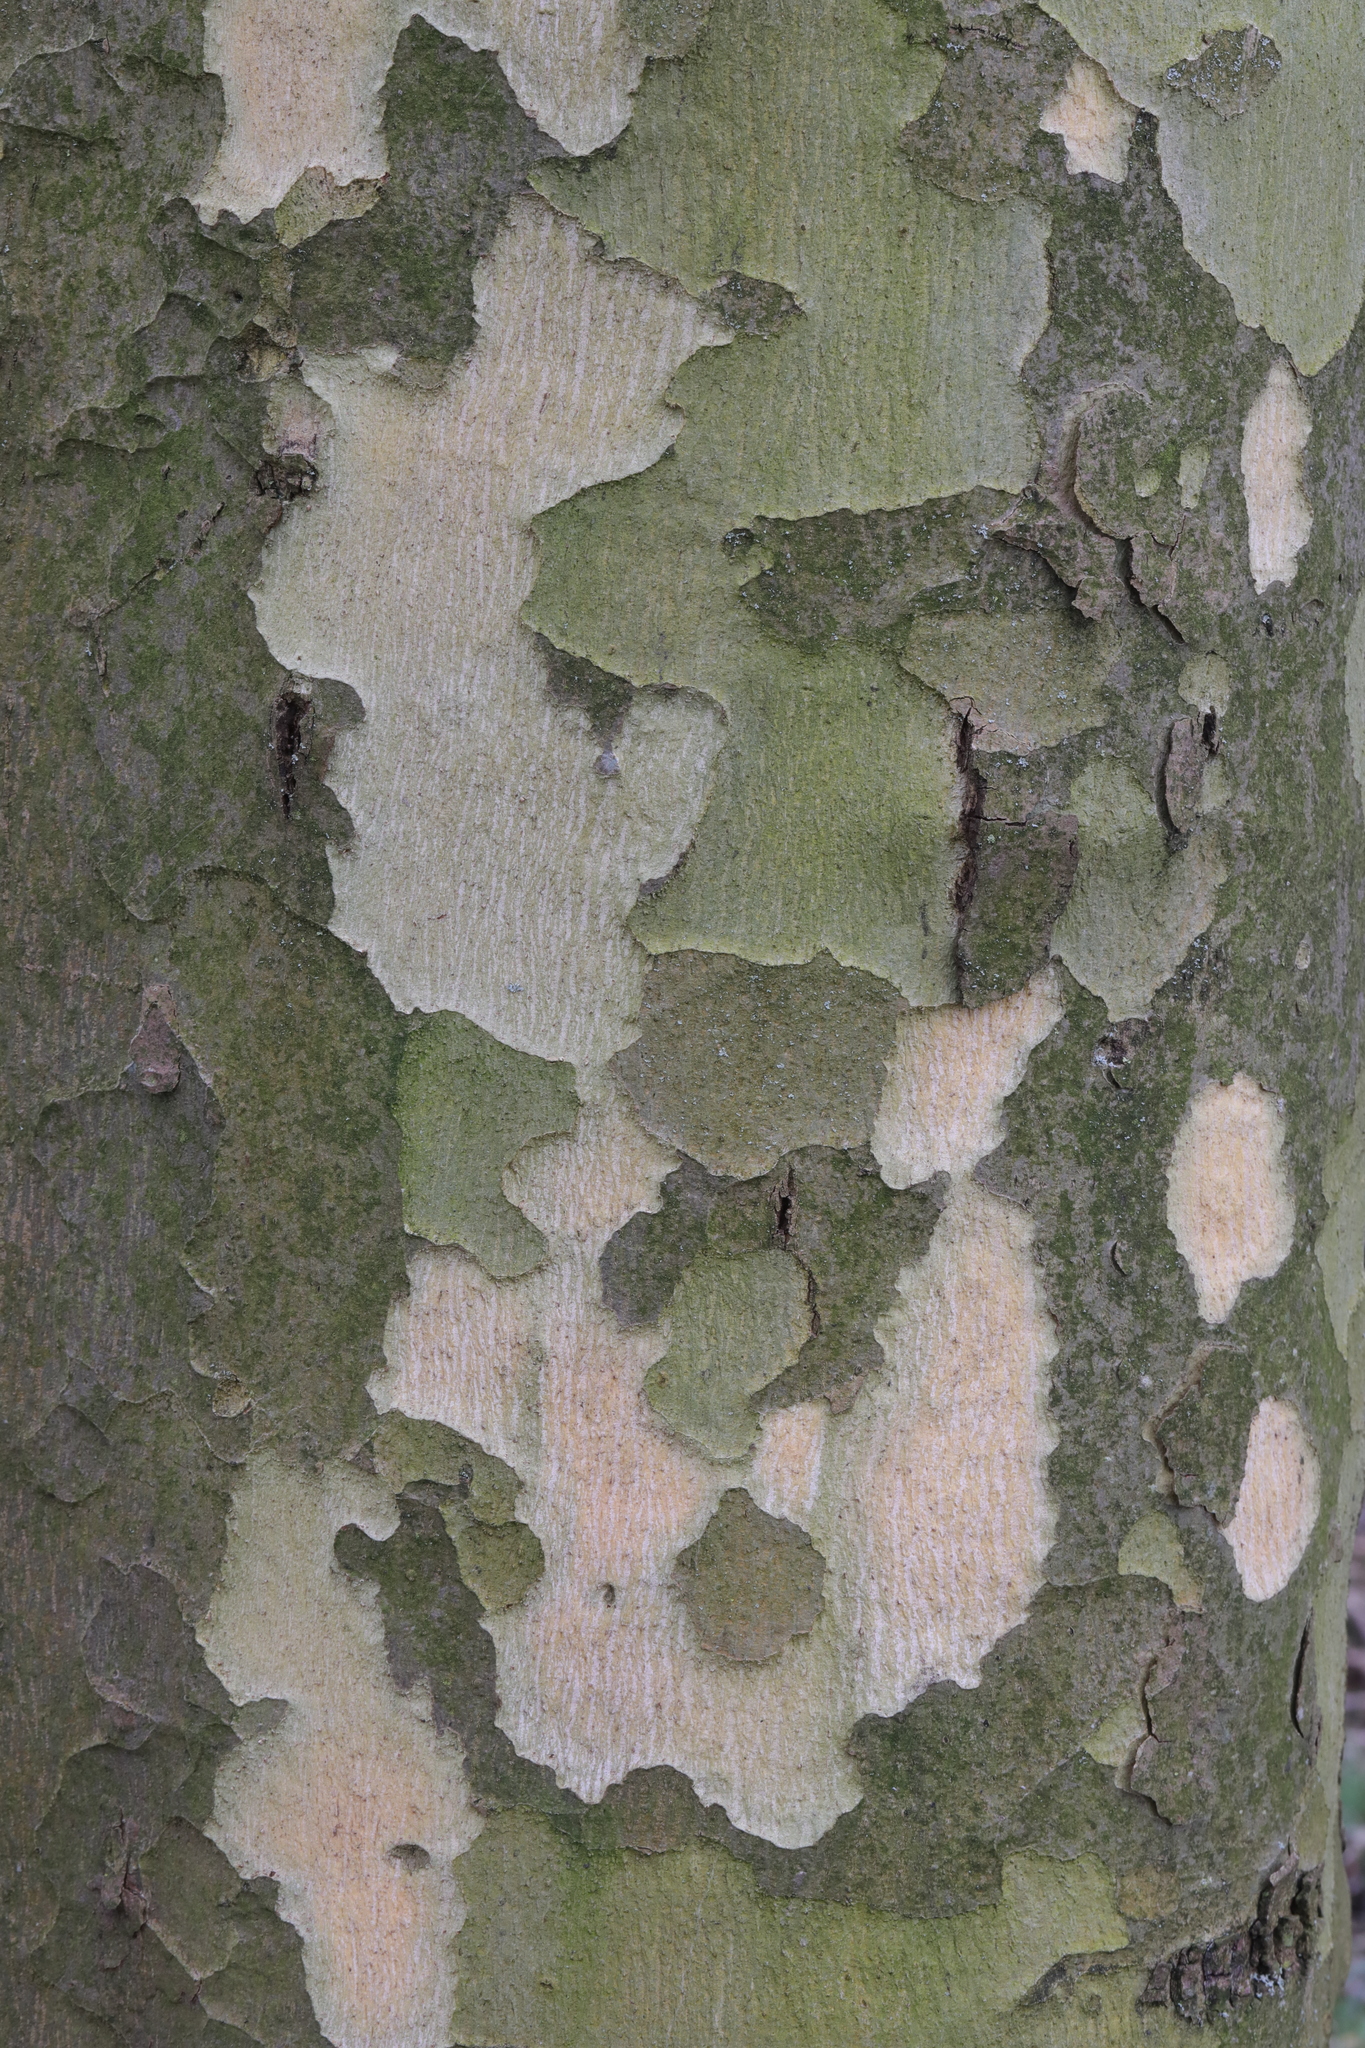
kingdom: Plantae
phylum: Tracheophyta
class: Magnoliopsida
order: Proteales
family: Platanaceae
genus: Platanus
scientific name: Platanus hispanica
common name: London plane
